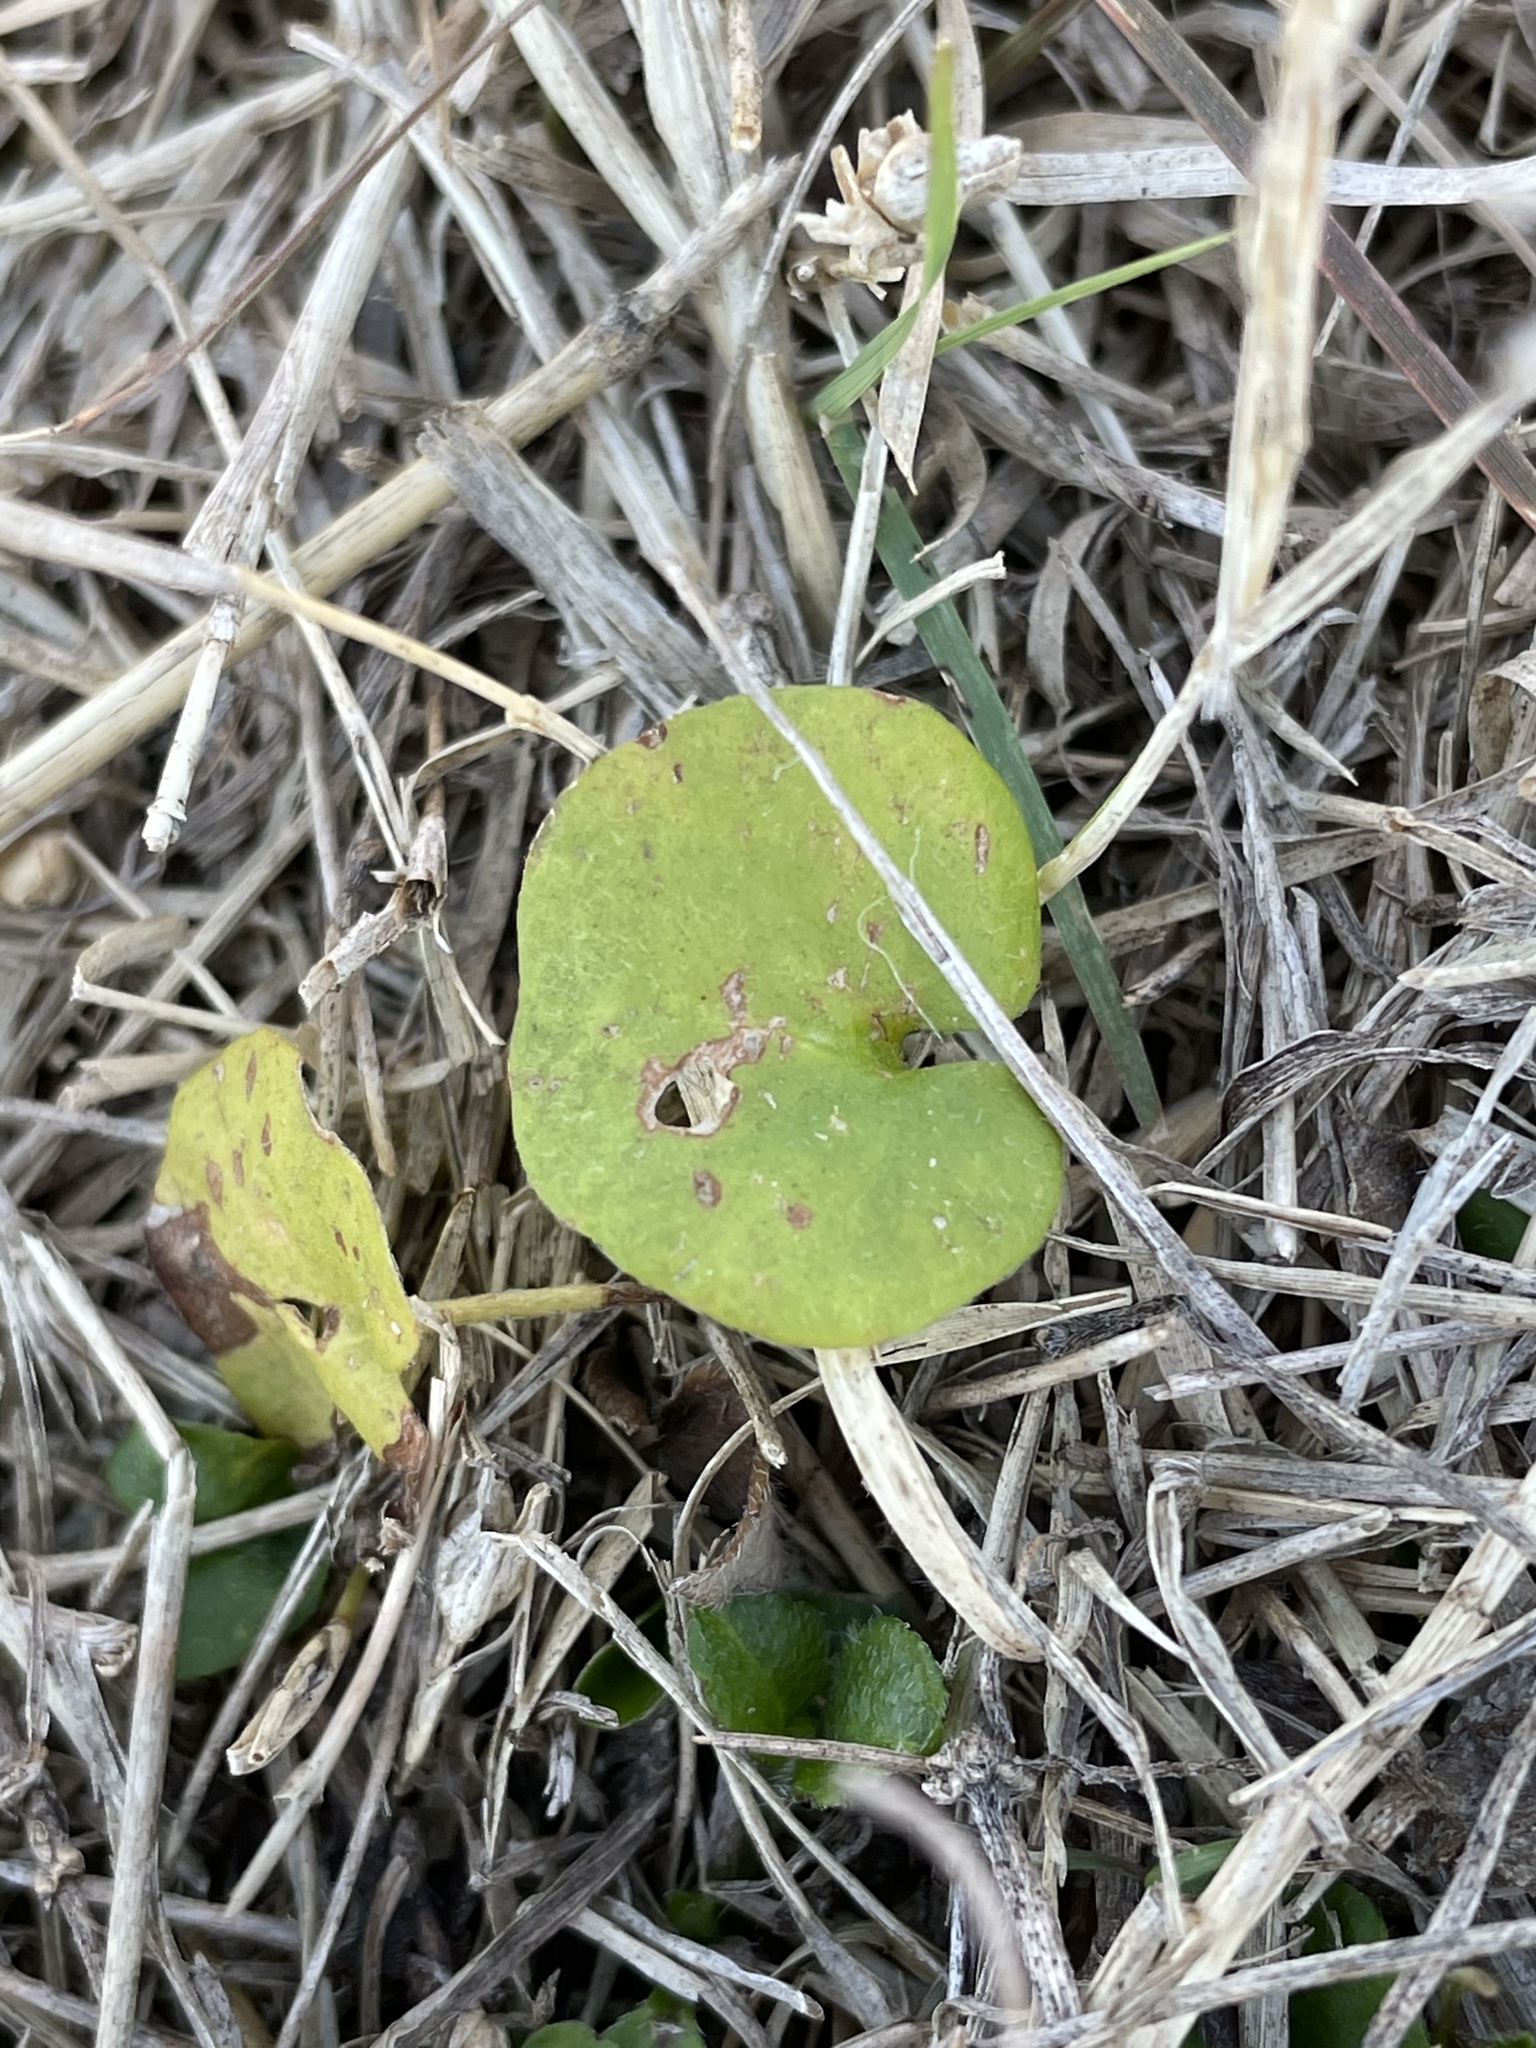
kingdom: Plantae
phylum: Tracheophyta
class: Magnoliopsida
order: Solanales
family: Convolvulaceae
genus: Dichondra
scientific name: Dichondra carolinensis
